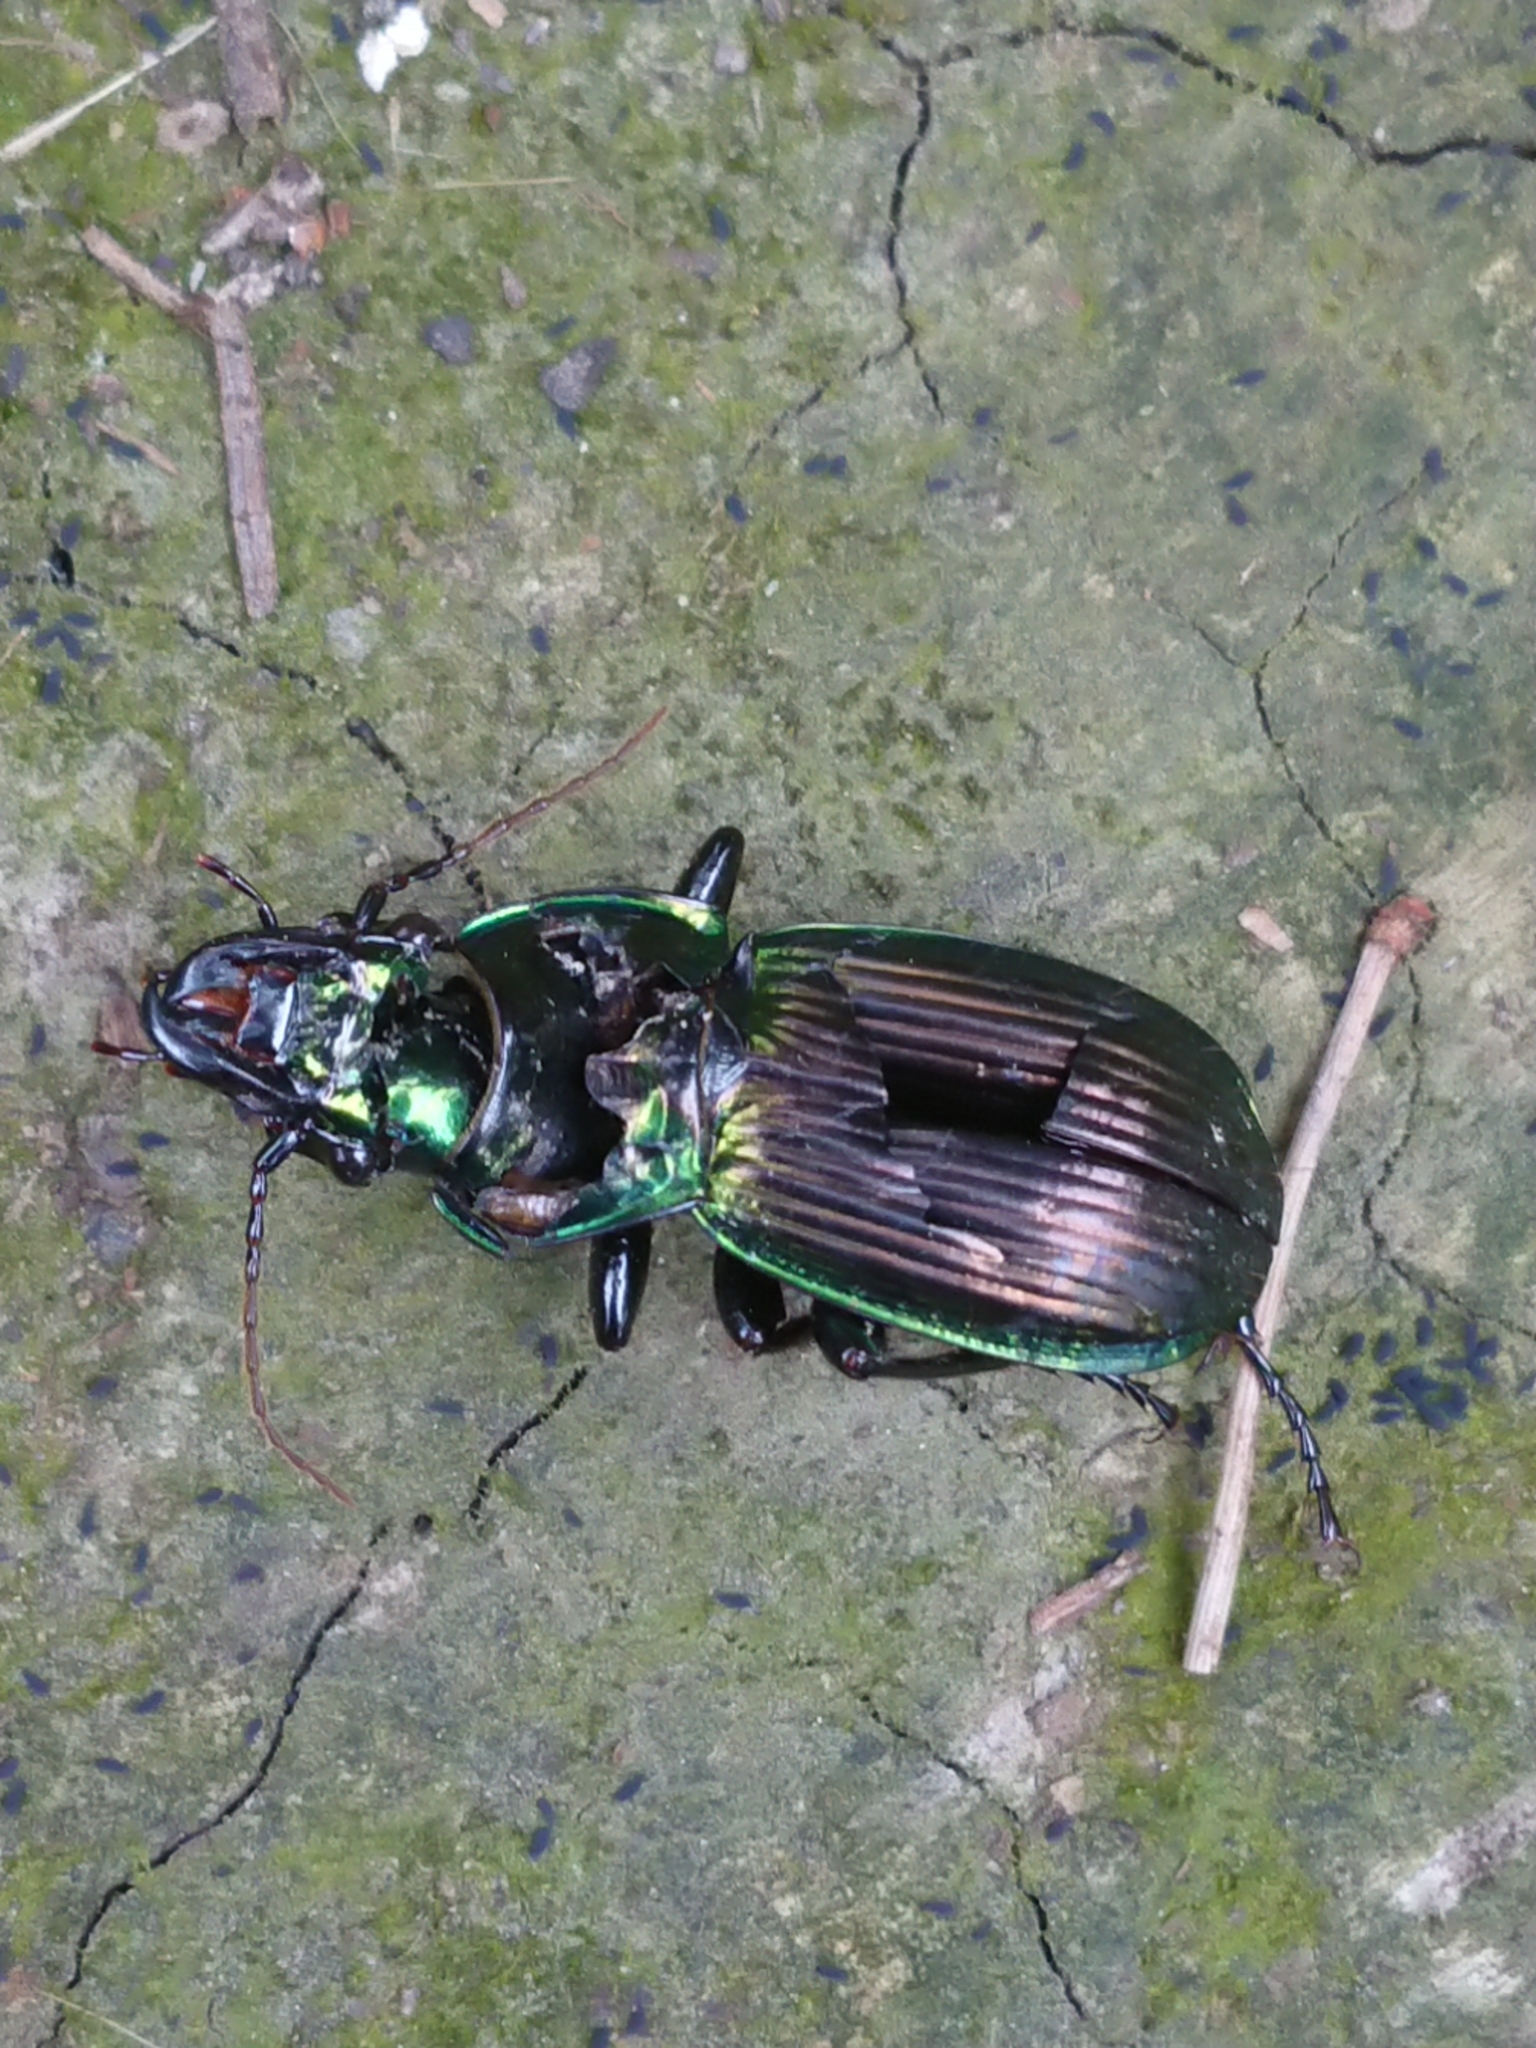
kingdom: Animalia
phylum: Arthropoda
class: Insecta
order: Coleoptera
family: Carabidae
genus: Megadromus
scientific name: Megadromus antarcticus
